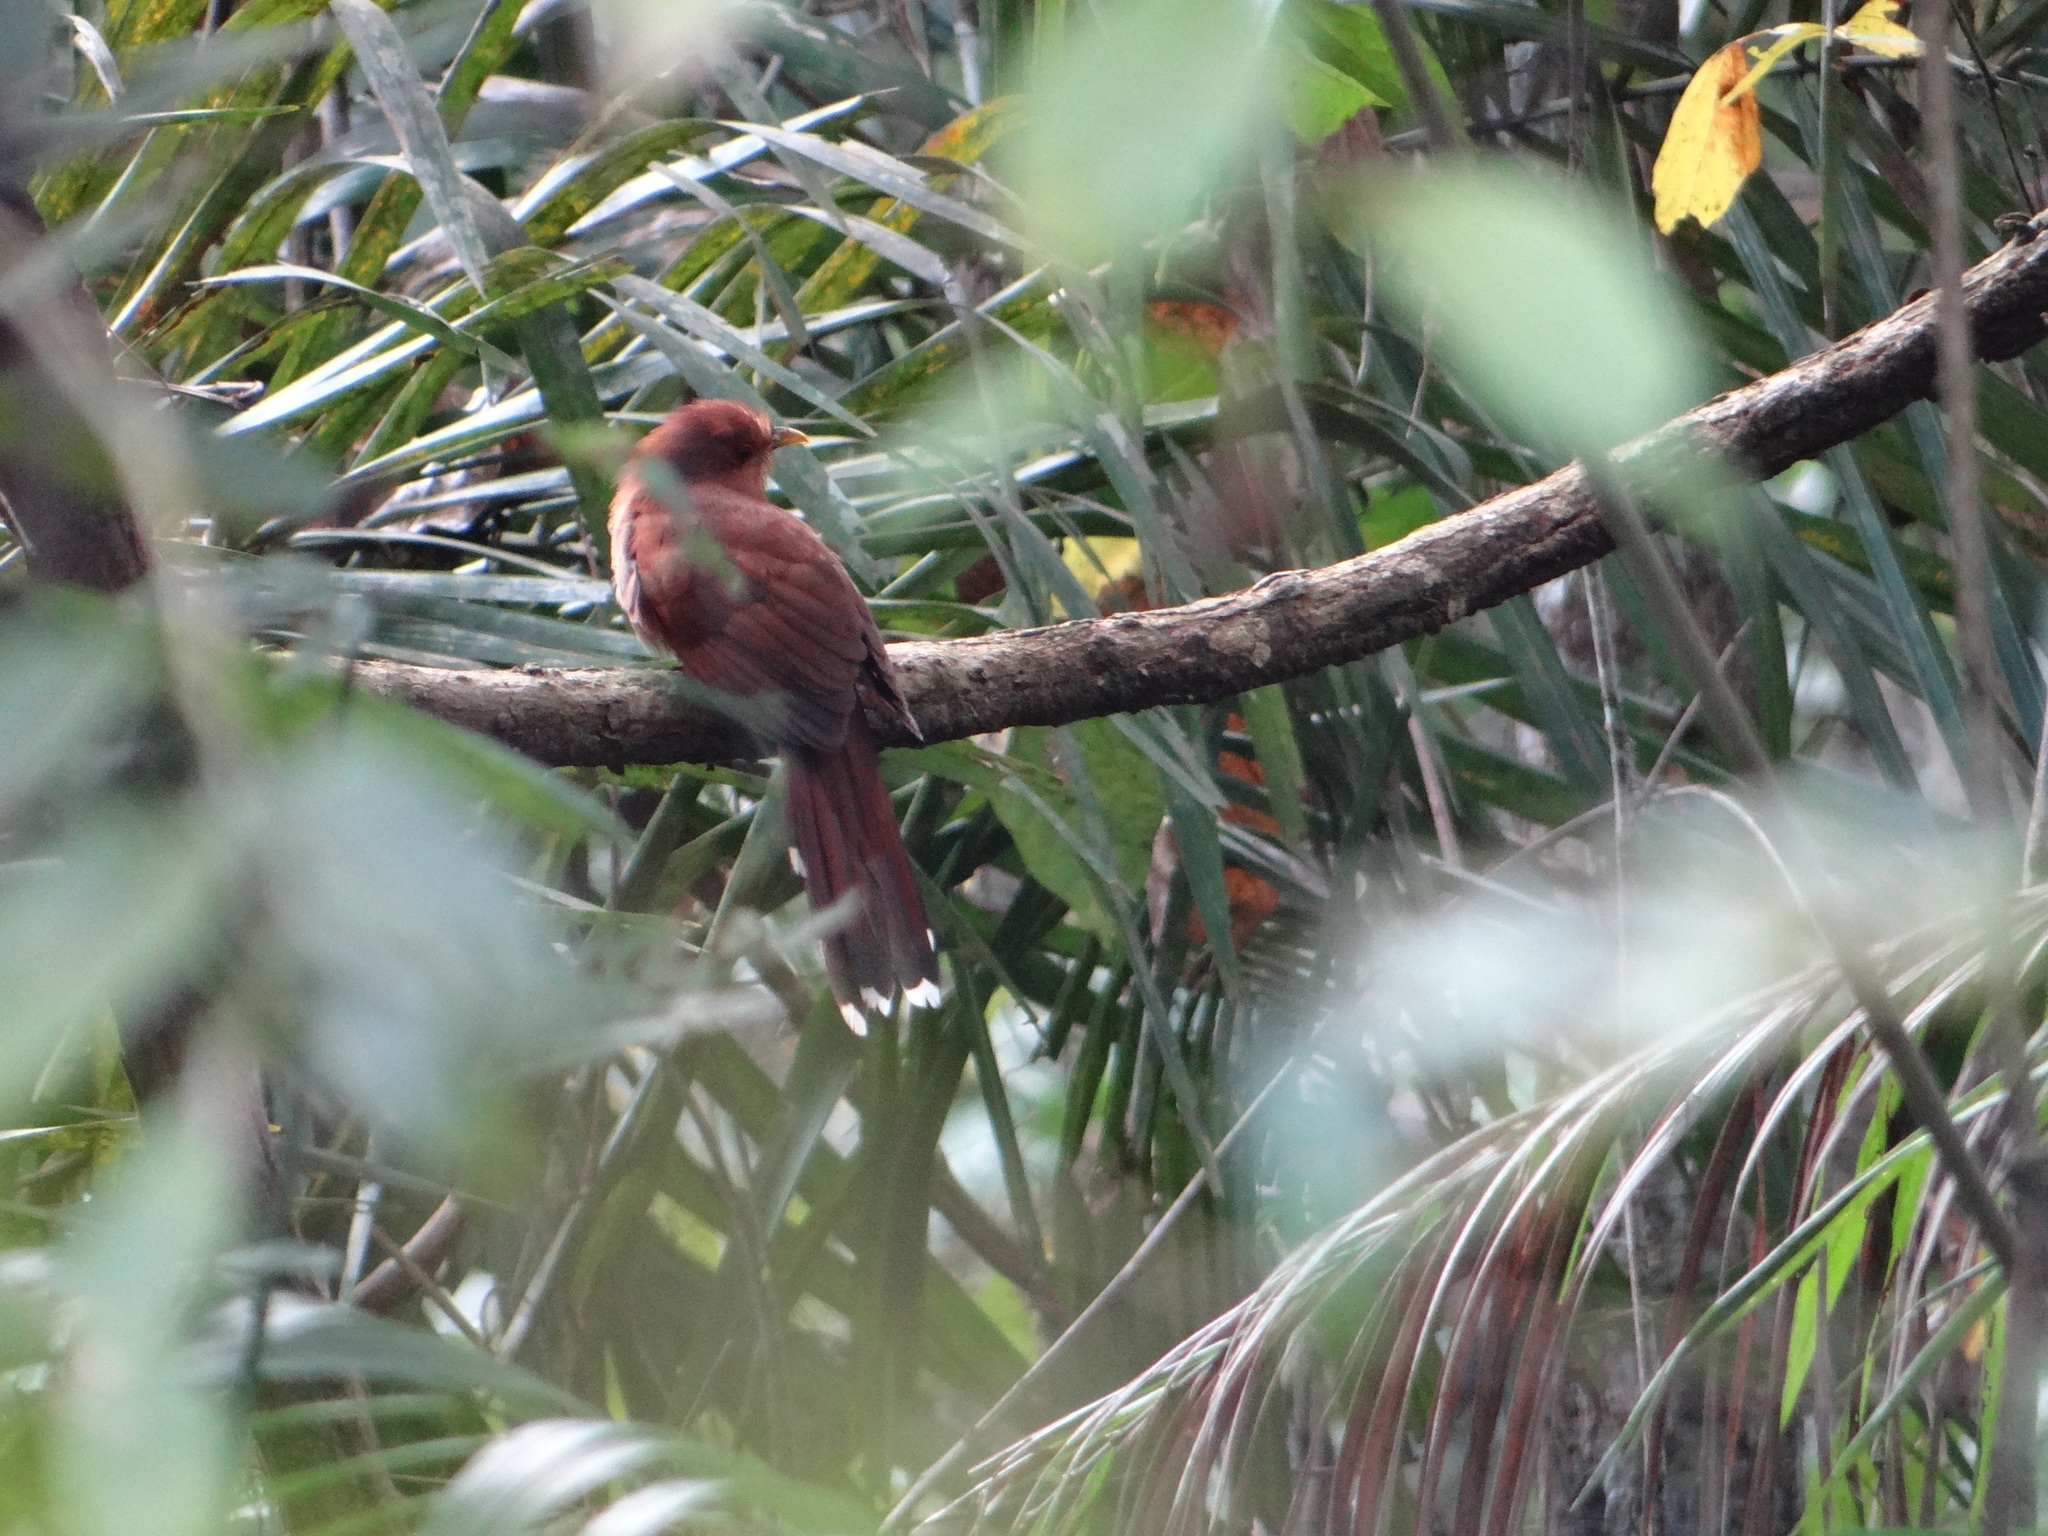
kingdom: Animalia
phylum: Chordata
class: Aves
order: Cuculiformes
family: Cuculidae
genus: Piaya
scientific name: Piaya cayana
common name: Squirrel cuckoo
